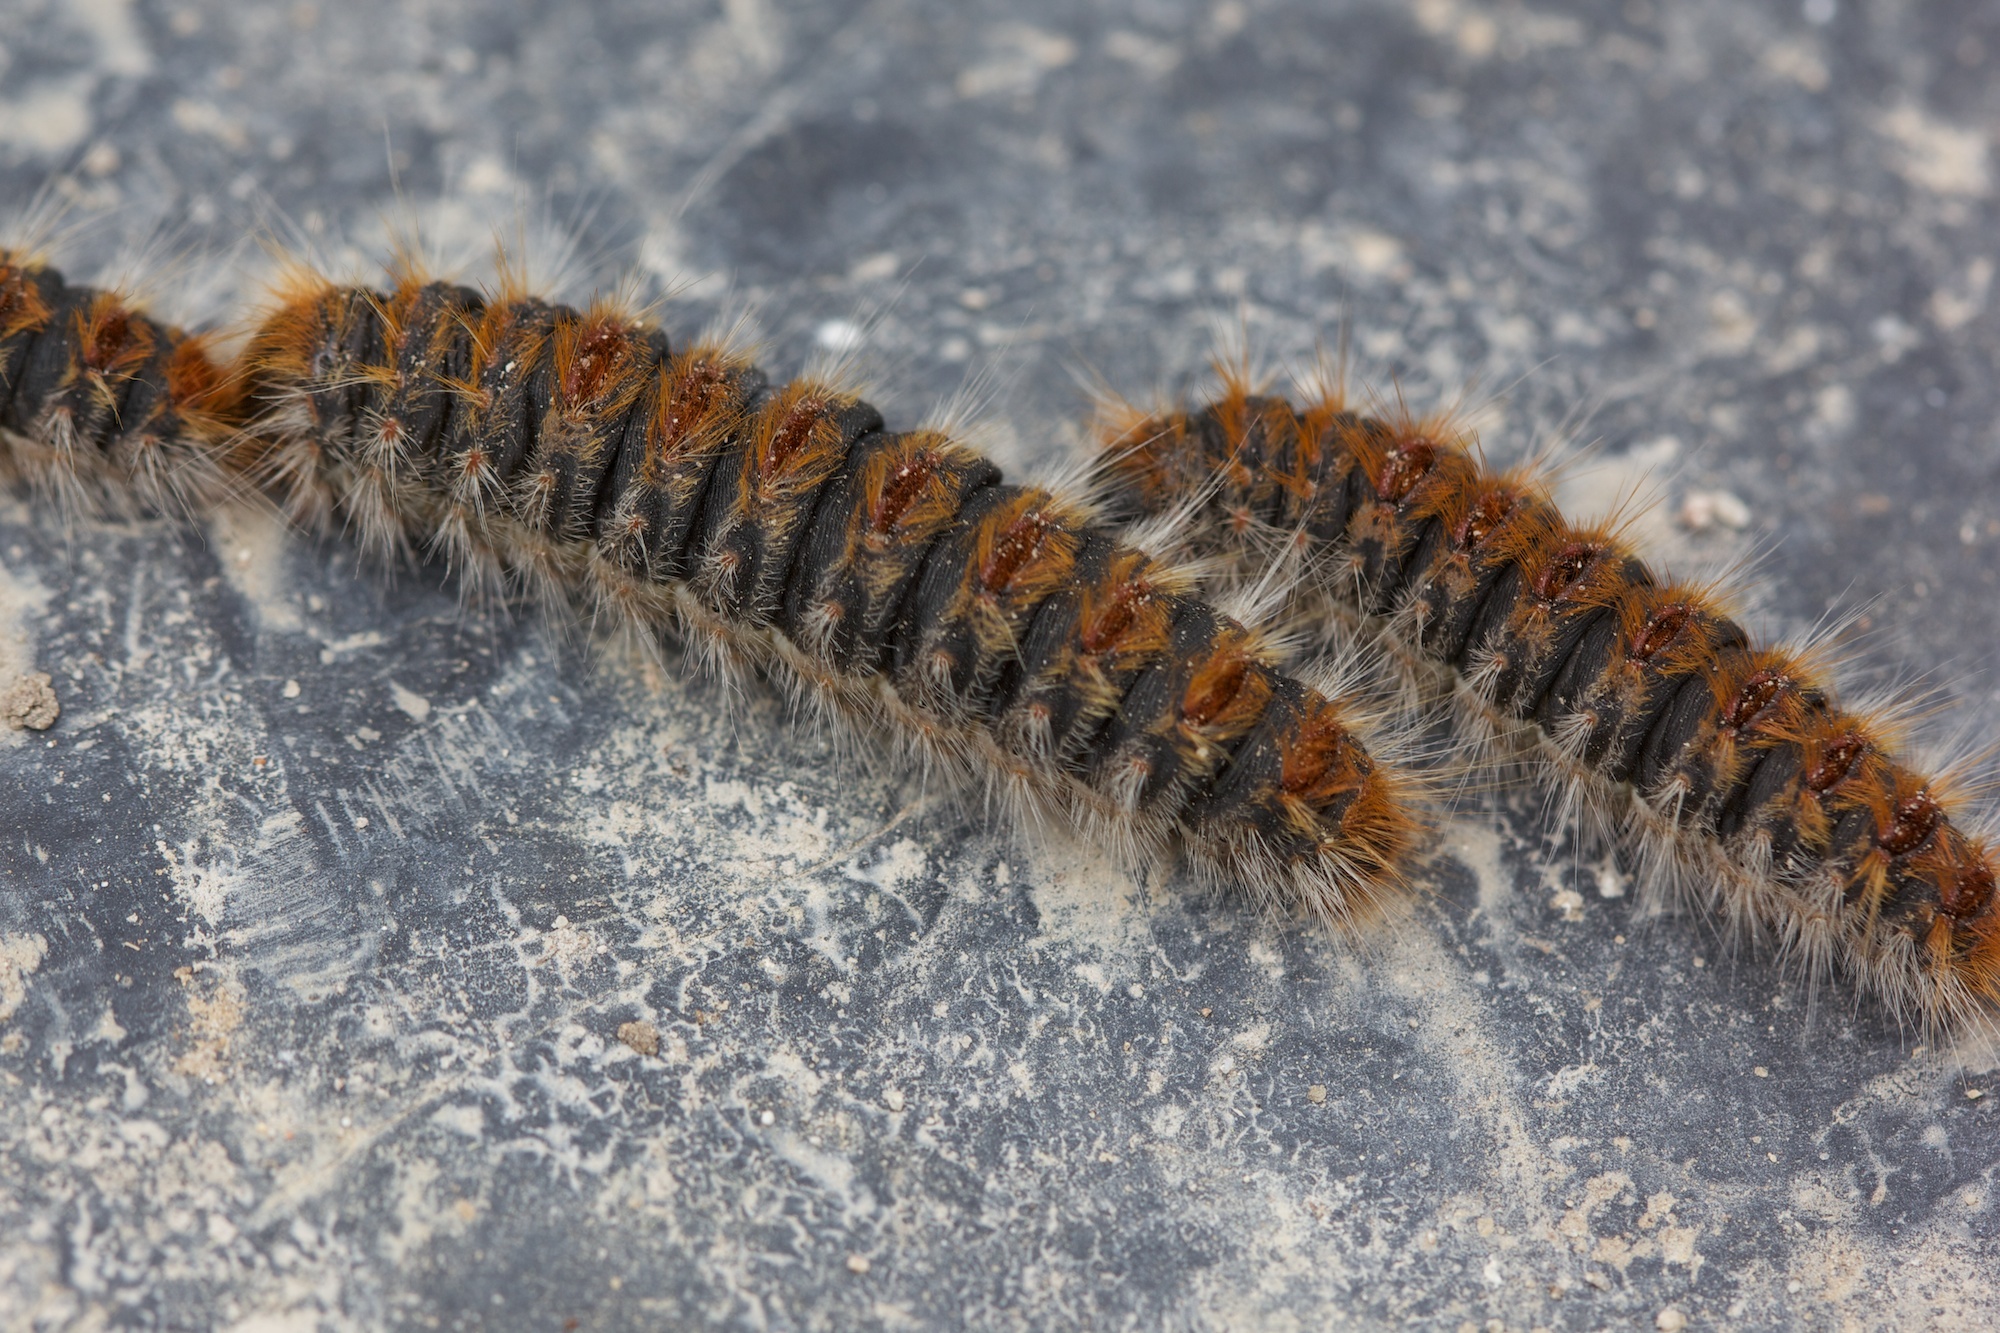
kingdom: Animalia
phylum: Arthropoda
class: Insecta
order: Lepidoptera
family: Notodontidae
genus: Thaumetopoea
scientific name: Thaumetopoea pityocampa
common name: Pine processionary
